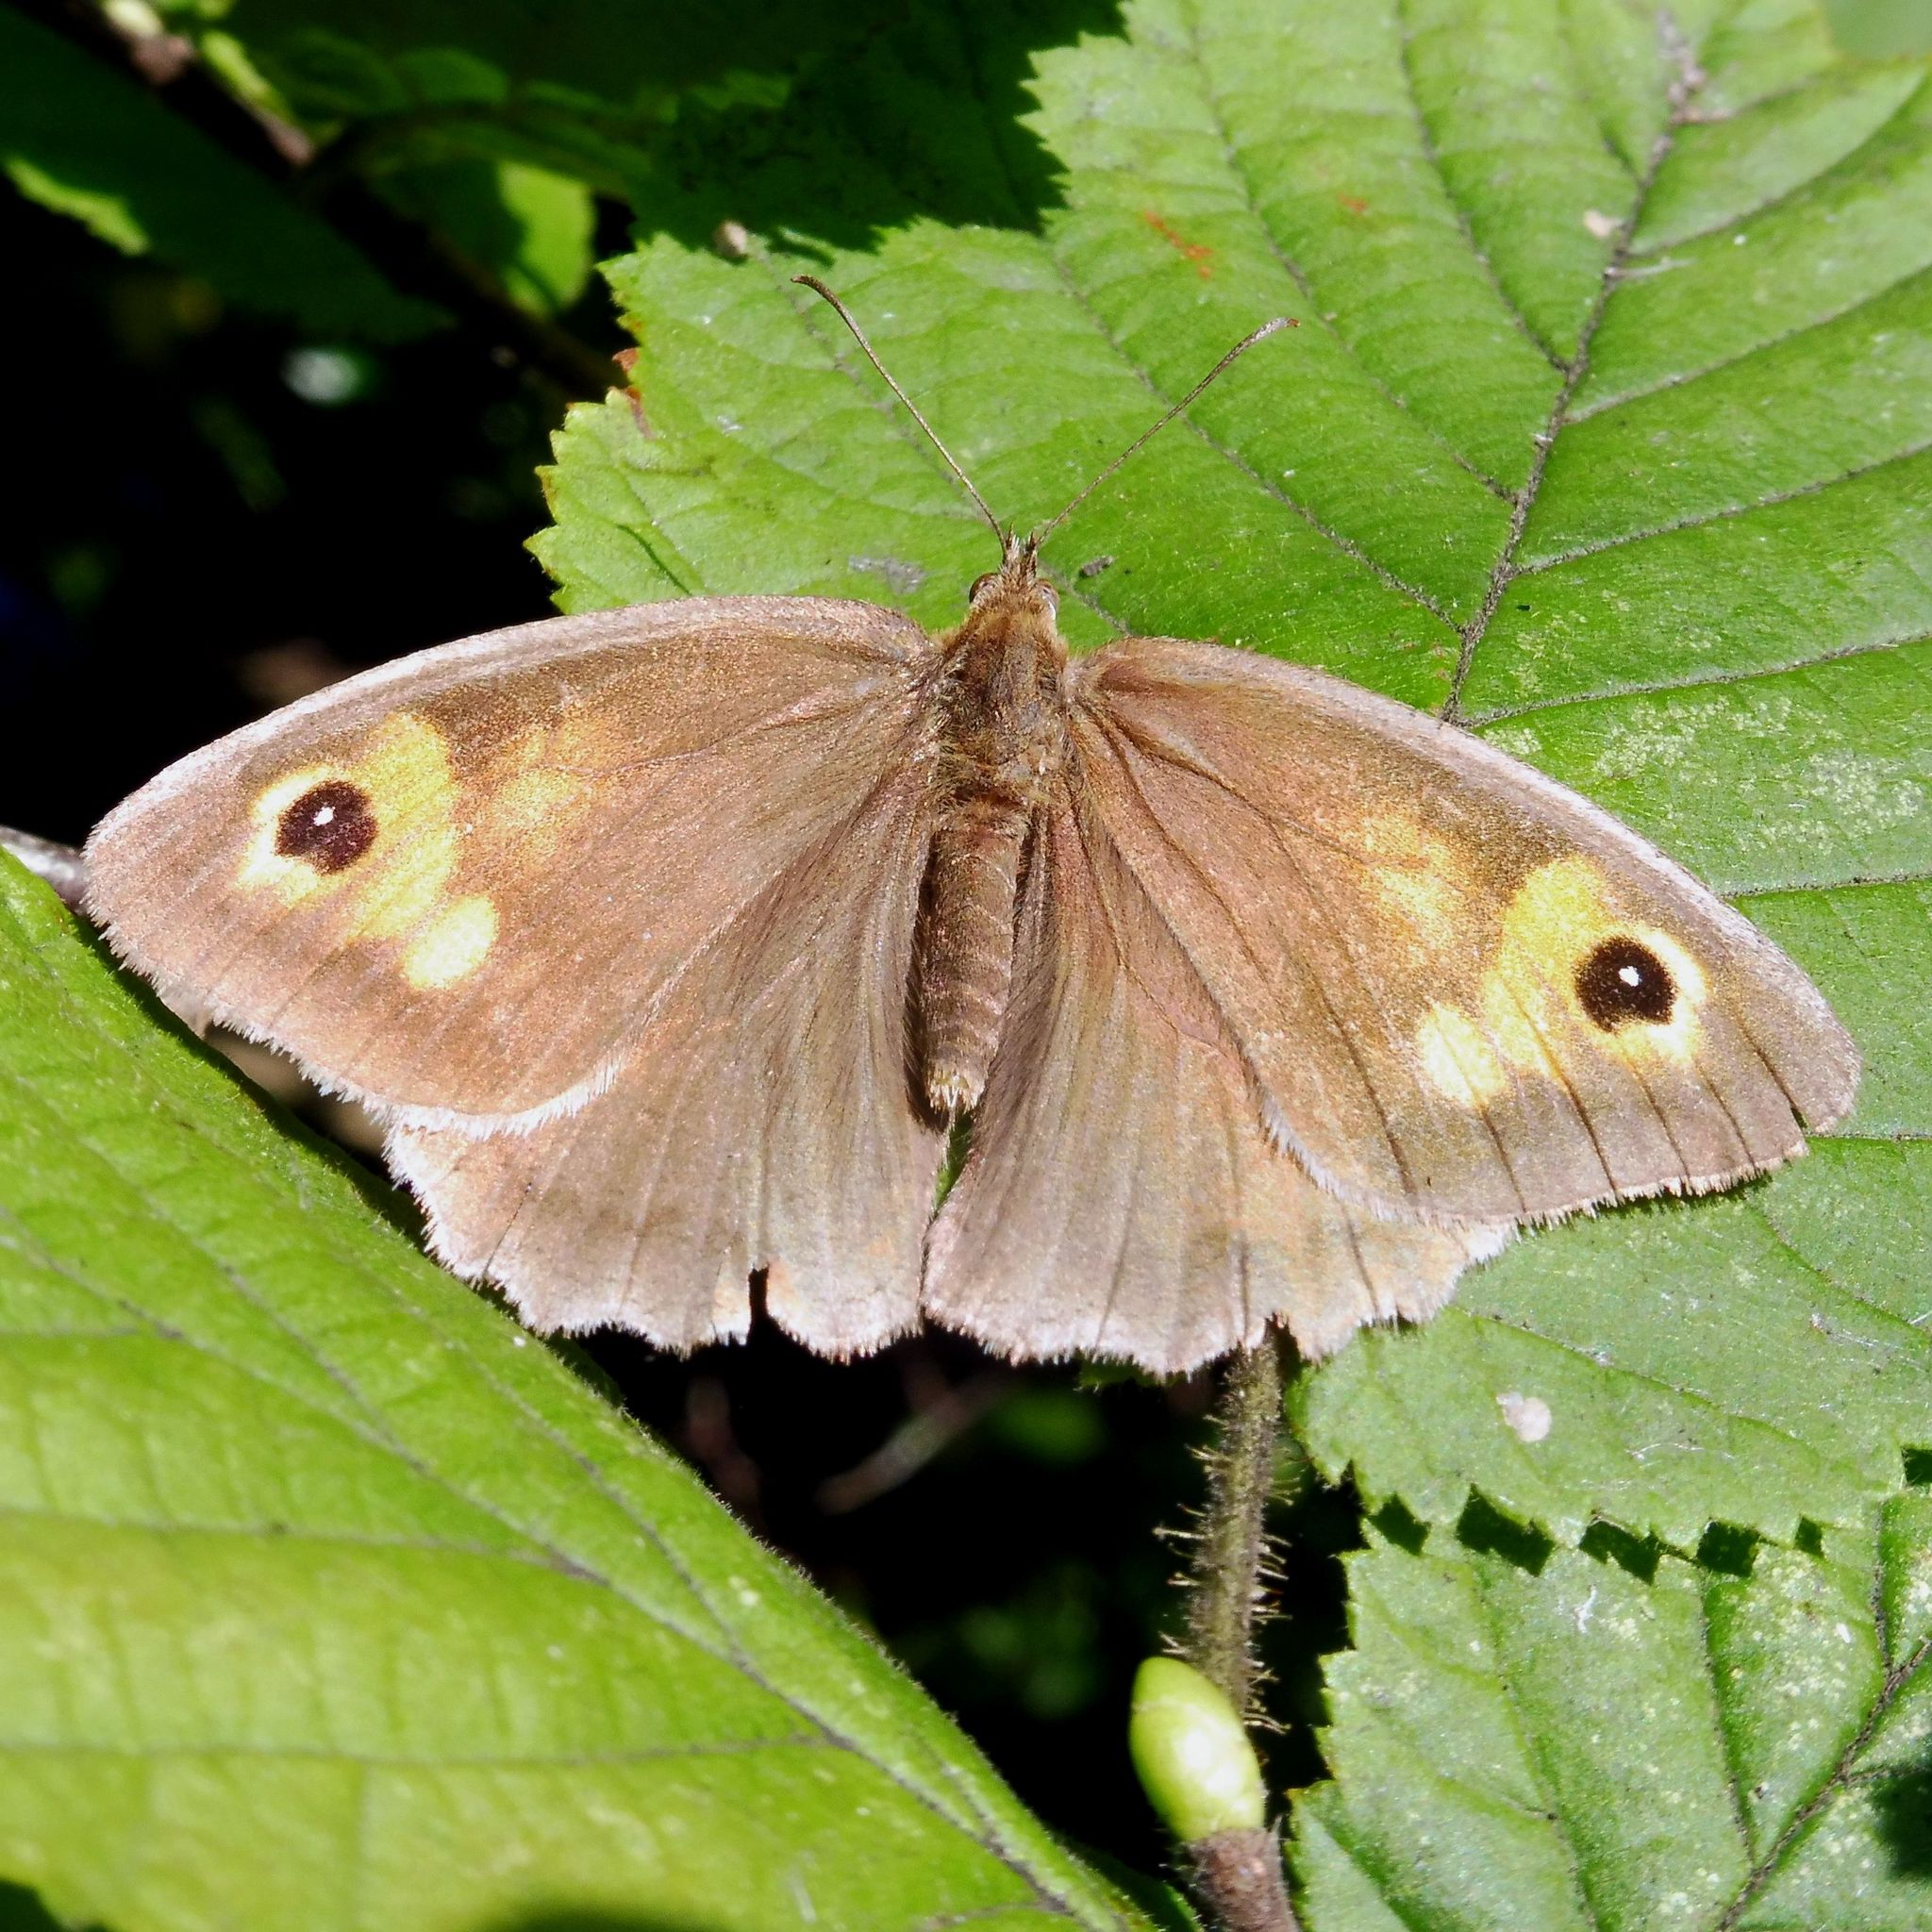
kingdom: Animalia
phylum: Arthropoda
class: Insecta
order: Lepidoptera
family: Nymphalidae
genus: Maniola
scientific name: Maniola jurtina
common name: Meadow brown
